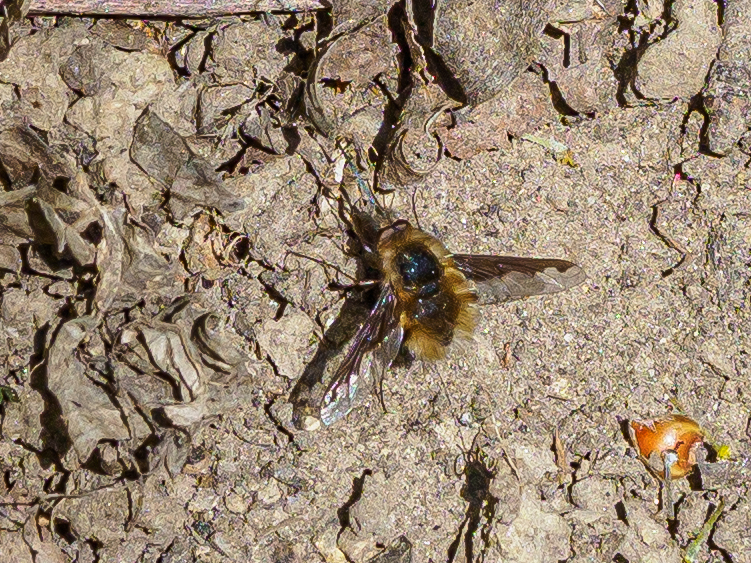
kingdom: Animalia
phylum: Arthropoda
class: Insecta
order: Diptera
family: Bombyliidae
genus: Bombylius
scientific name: Bombylius major
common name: Bee fly
